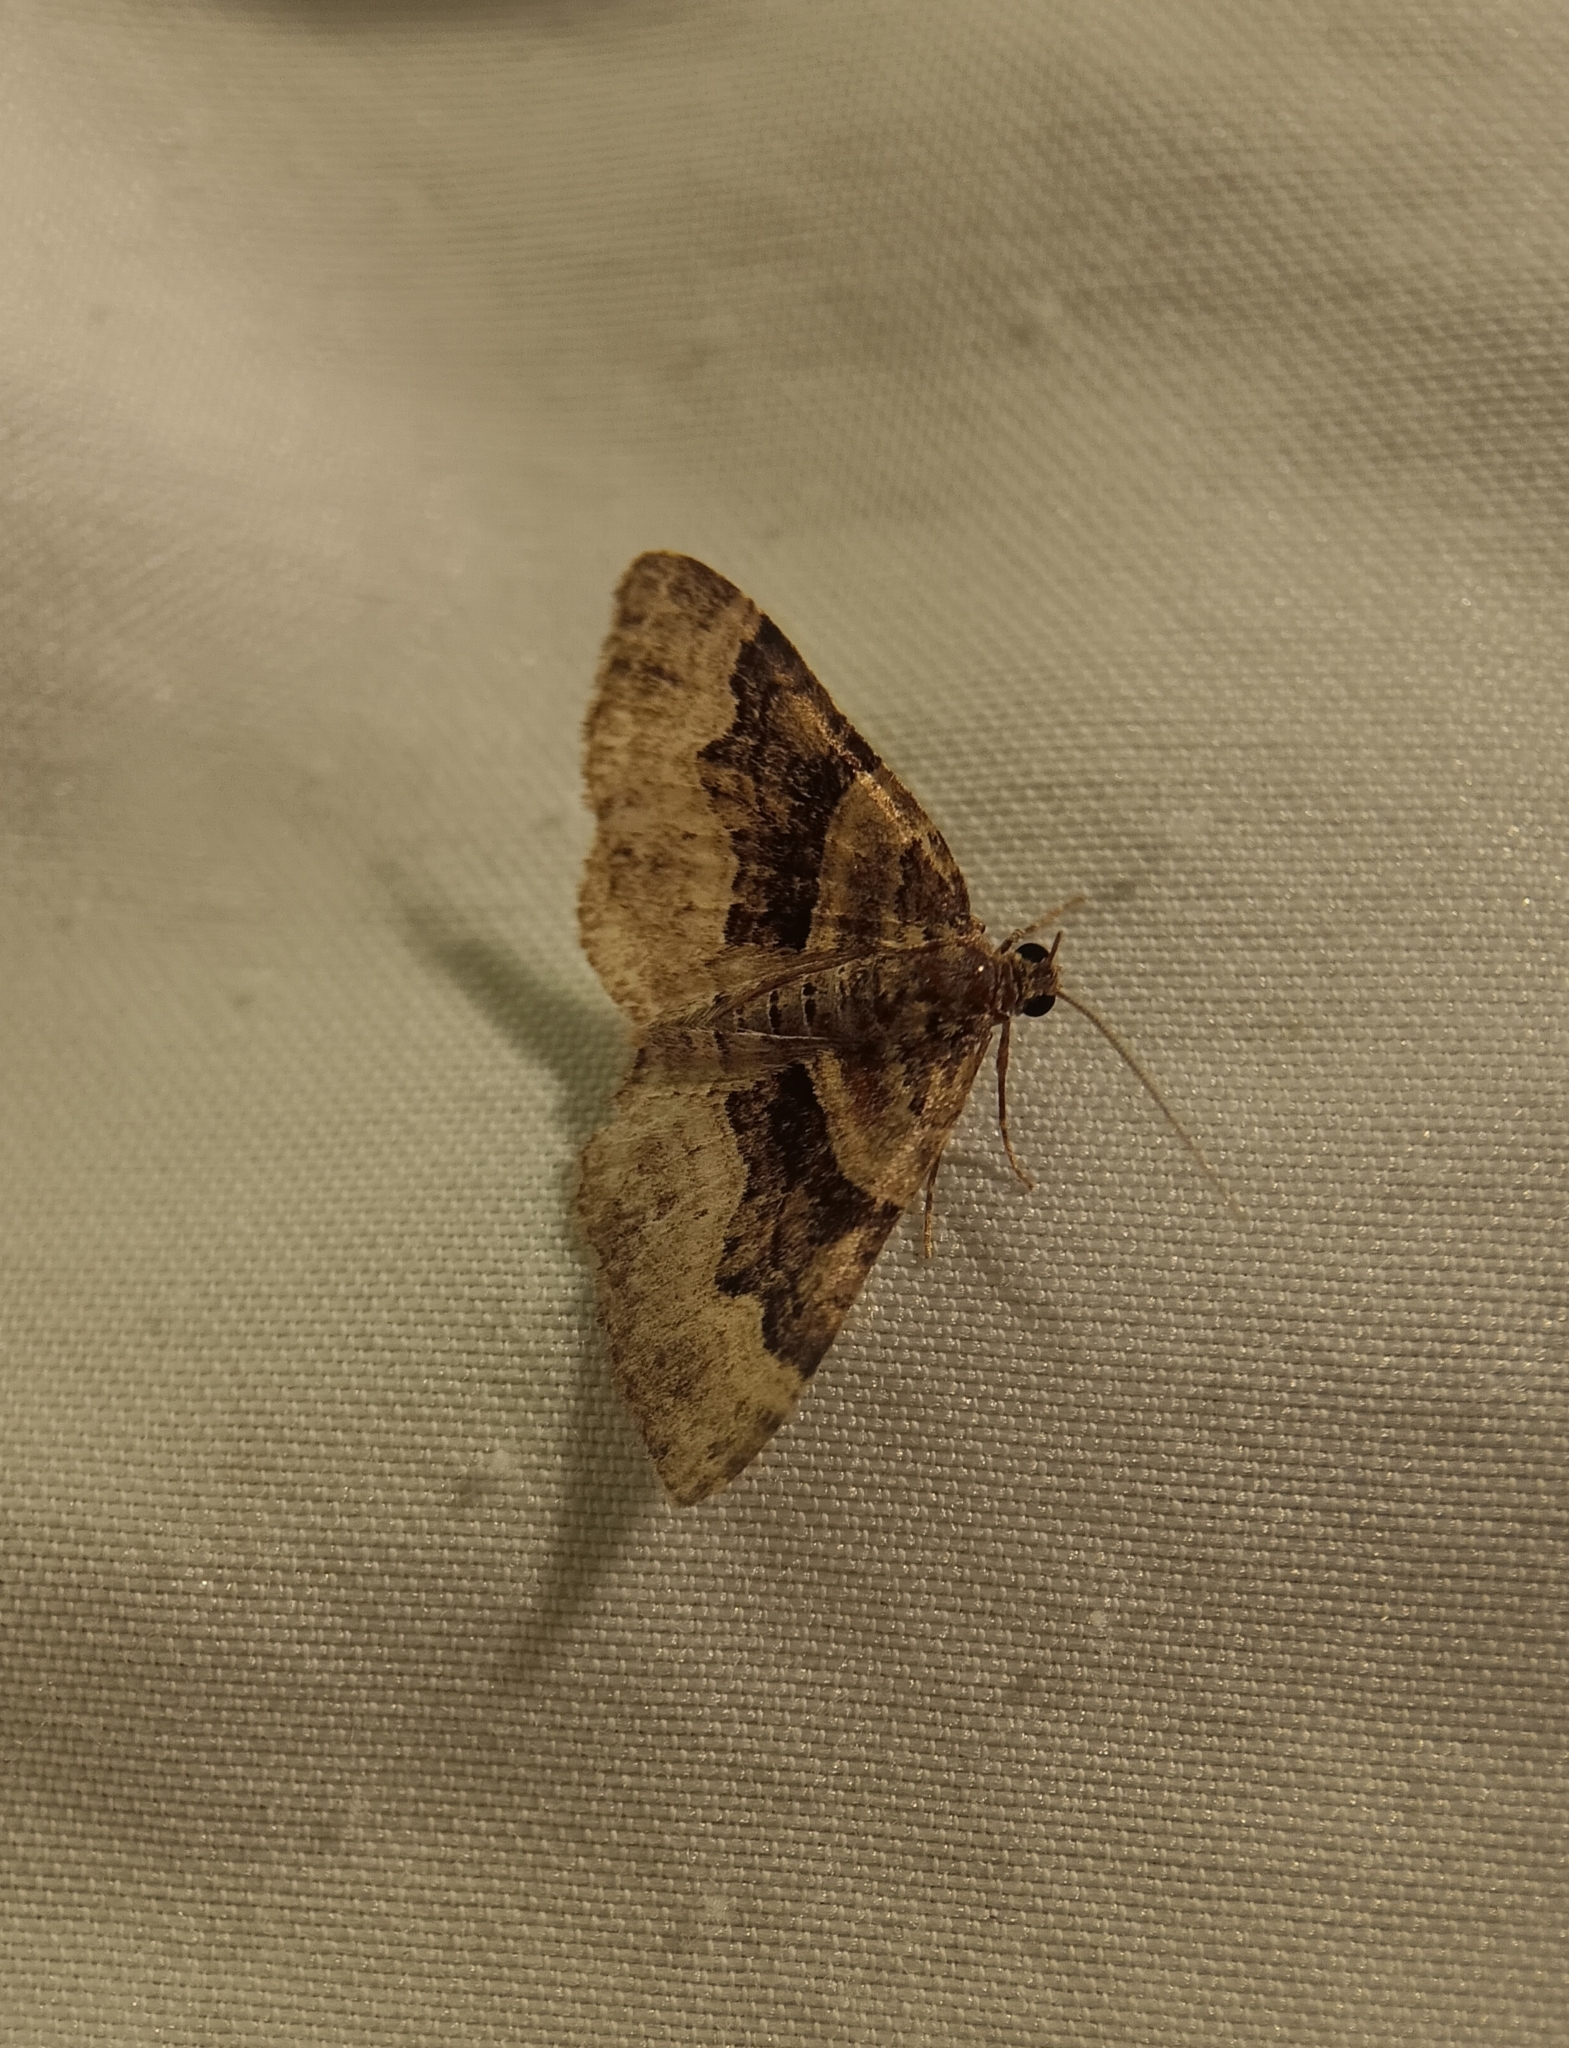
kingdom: Animalia
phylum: Arthropoda
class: Insecta
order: Lepidoptera
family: Geometridae
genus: Xanthorhoe
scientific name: Xanthorhoe lacustrata
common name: Toothed brown carpet
